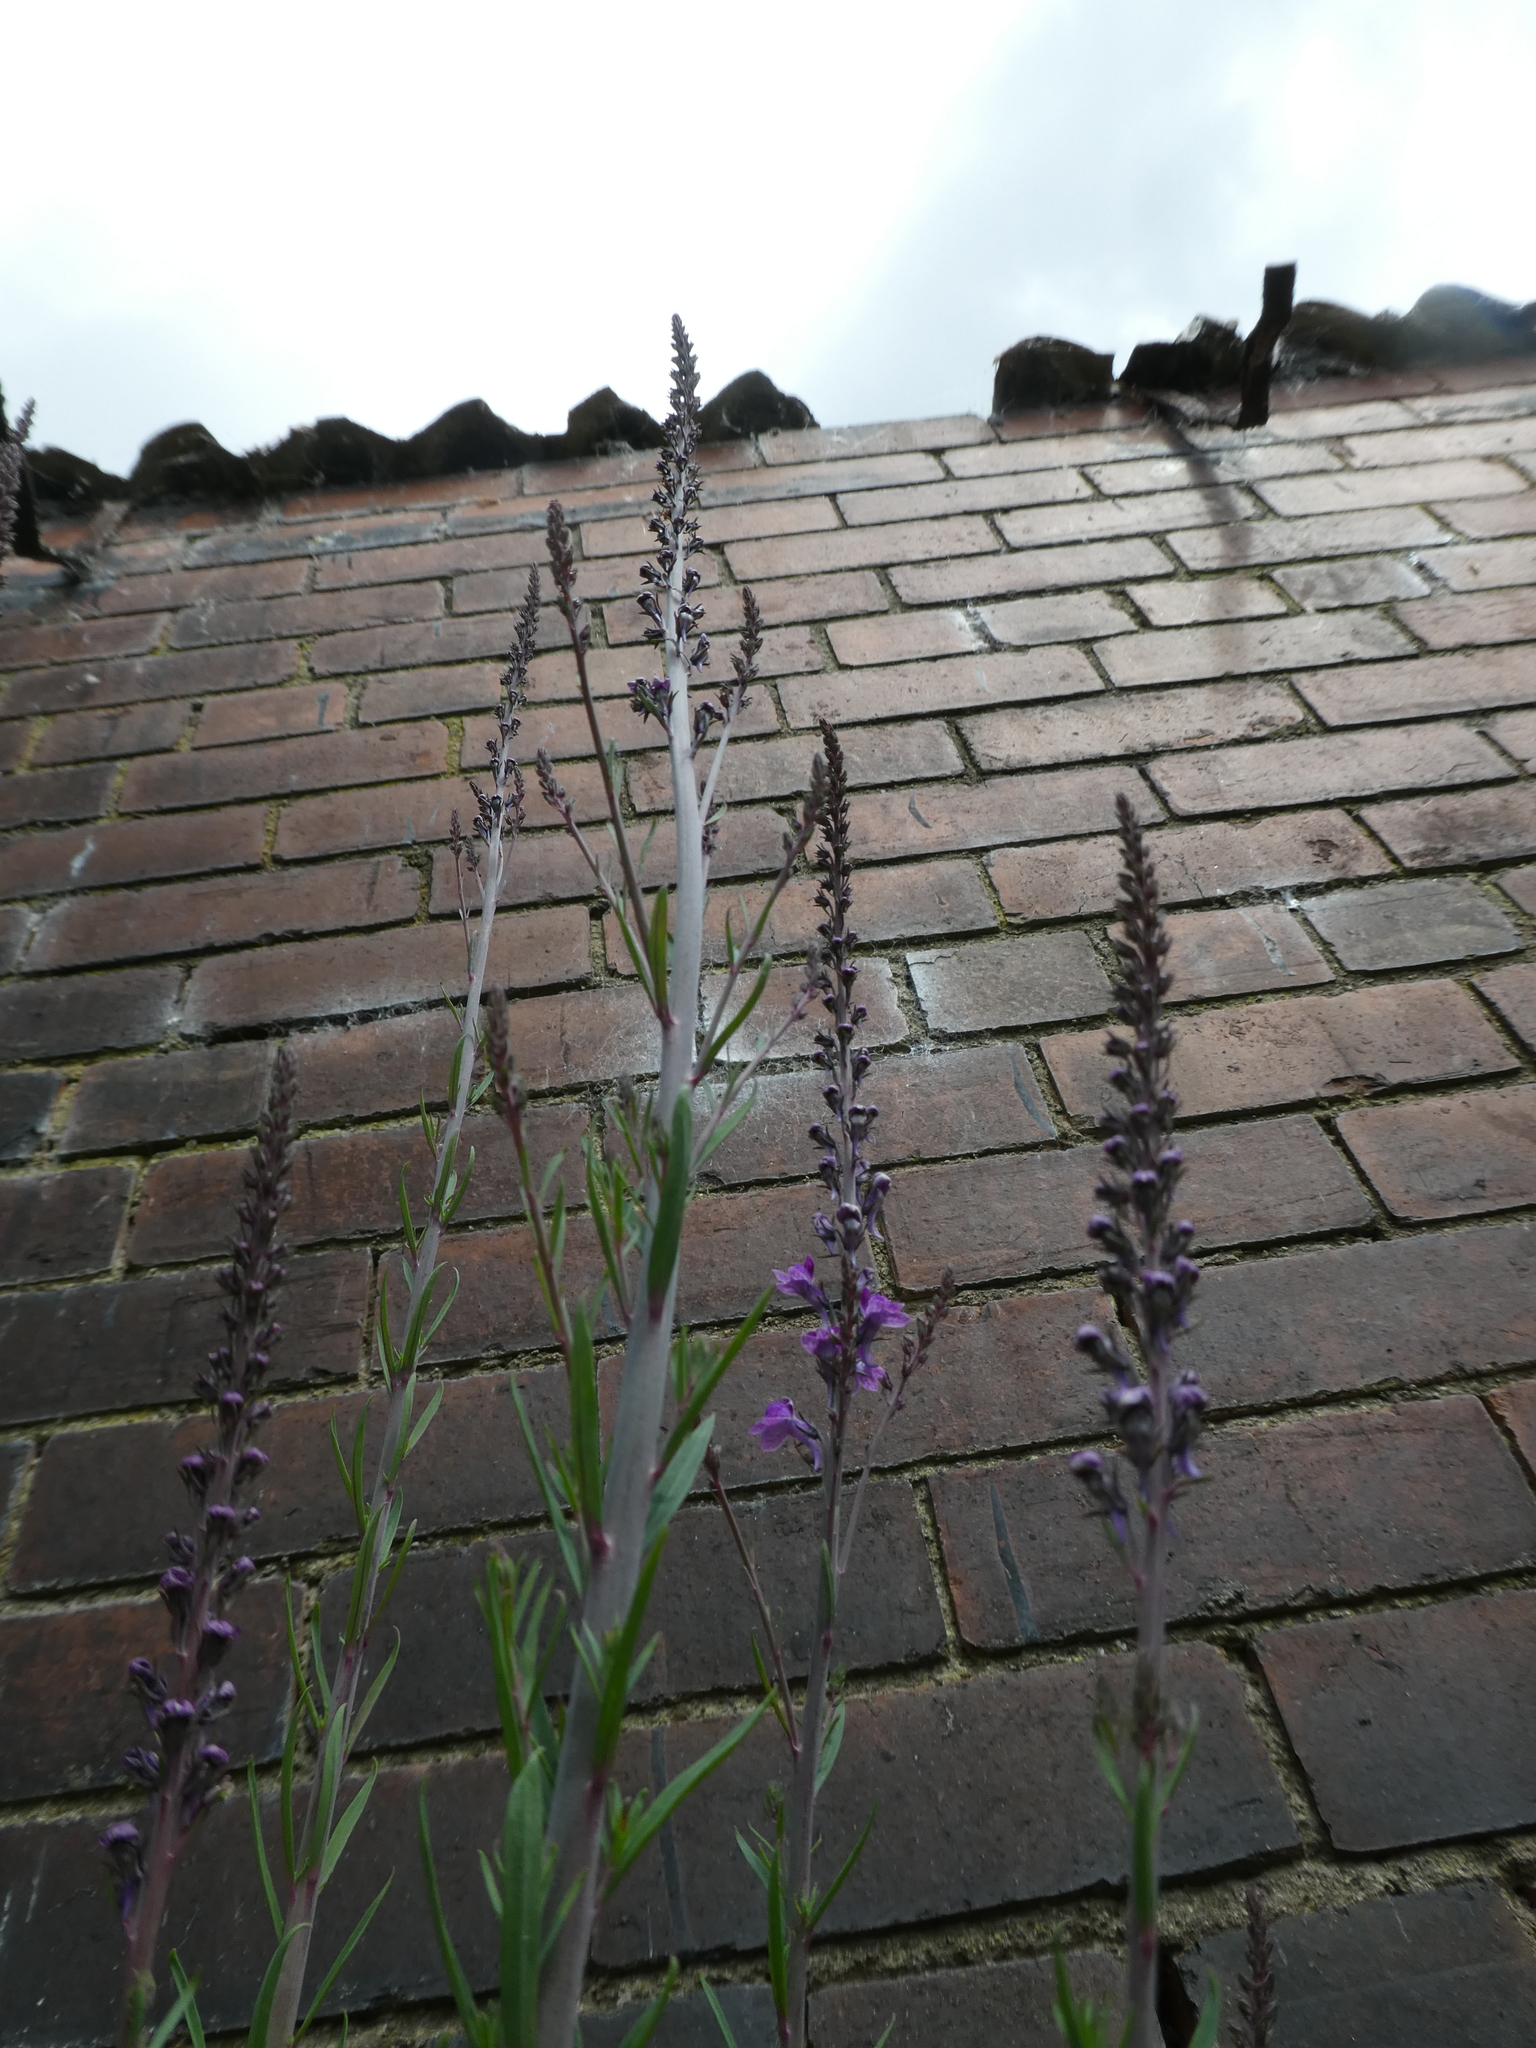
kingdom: Plantae
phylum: Tracheophyta
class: Magnoliopsida
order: Lamiales
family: Plantaginaceae
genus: Linaria
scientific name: Linaria purpurea
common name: Purple toadflax
